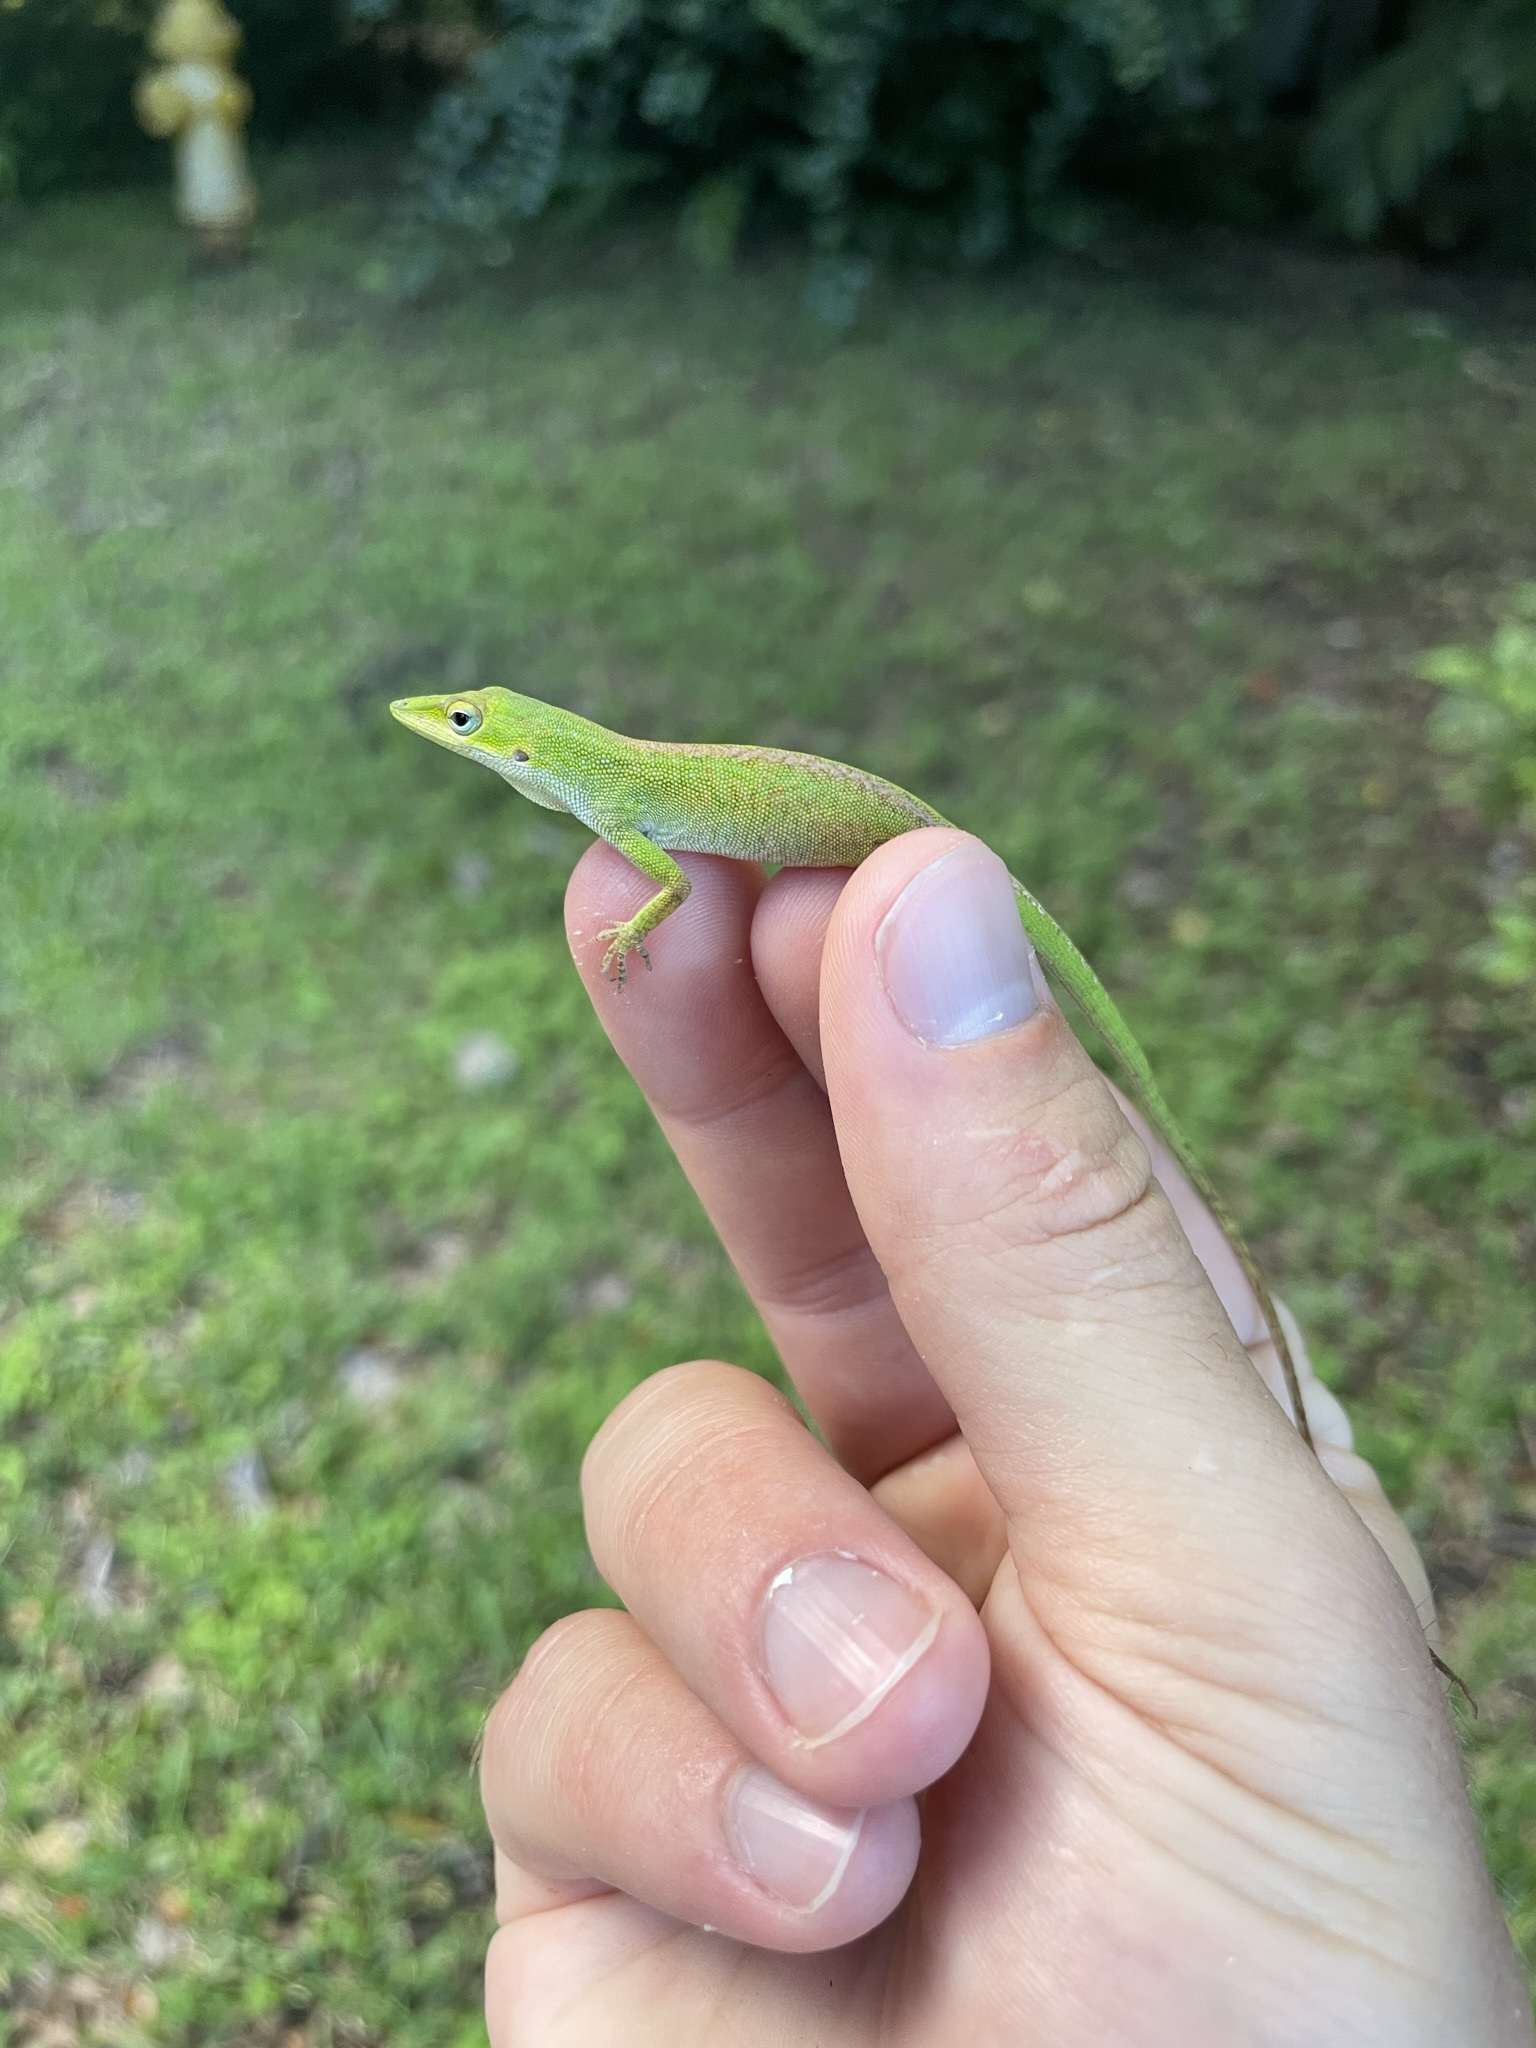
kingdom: Animalia
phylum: Chordata
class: Squamata
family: Dactyloidae
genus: Anolis
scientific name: Anolis carolinensis
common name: Green anole
